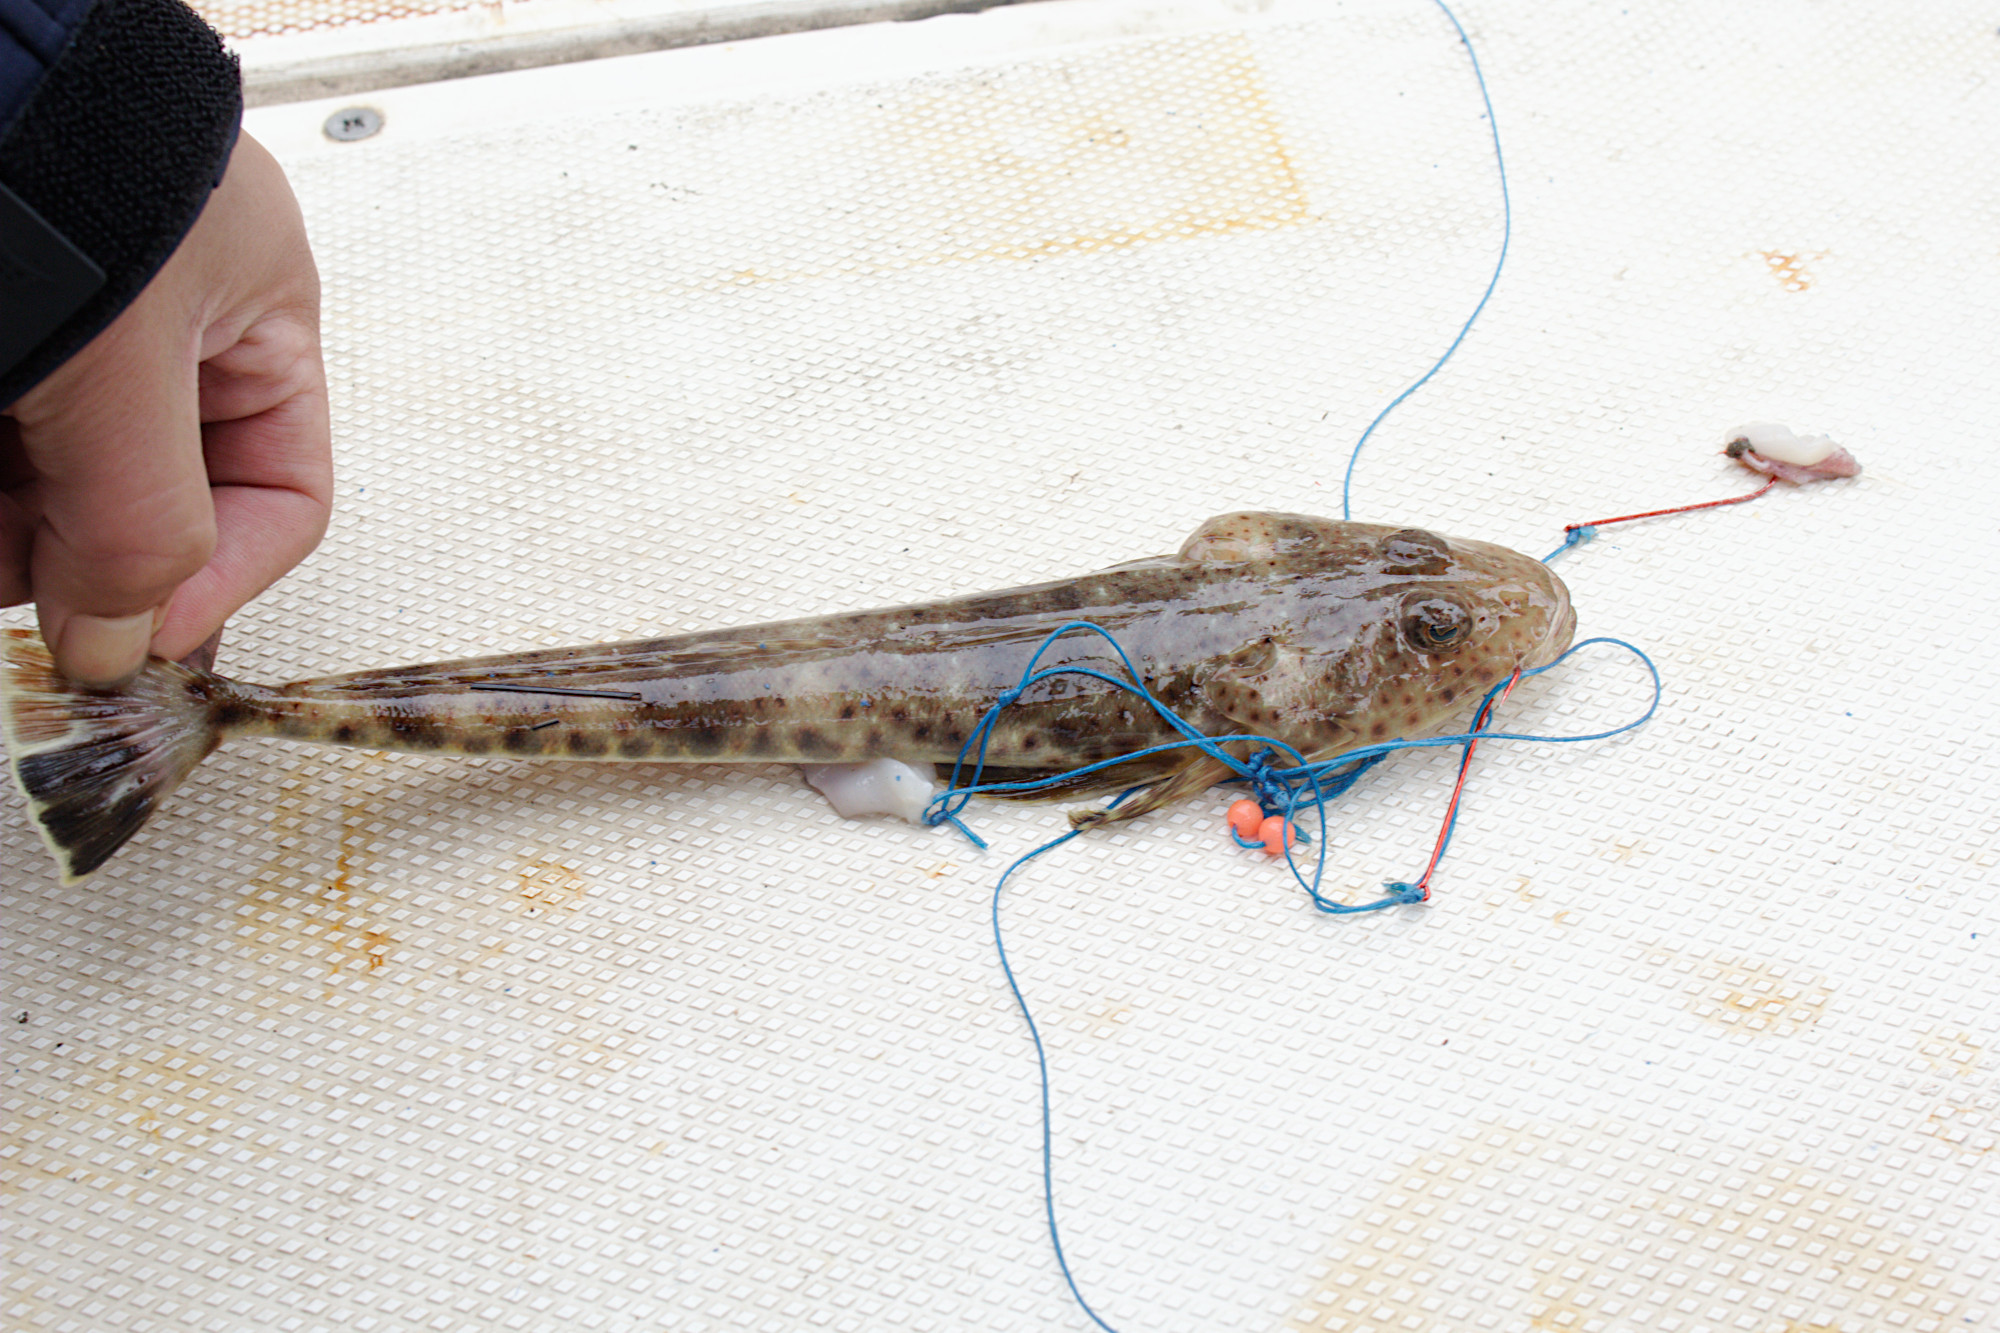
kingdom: Animalia
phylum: Chordata
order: Scorpaeniformes
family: Platycephalidae
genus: Platycephalus
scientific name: Platycephalus bassensis
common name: Sand flathead
